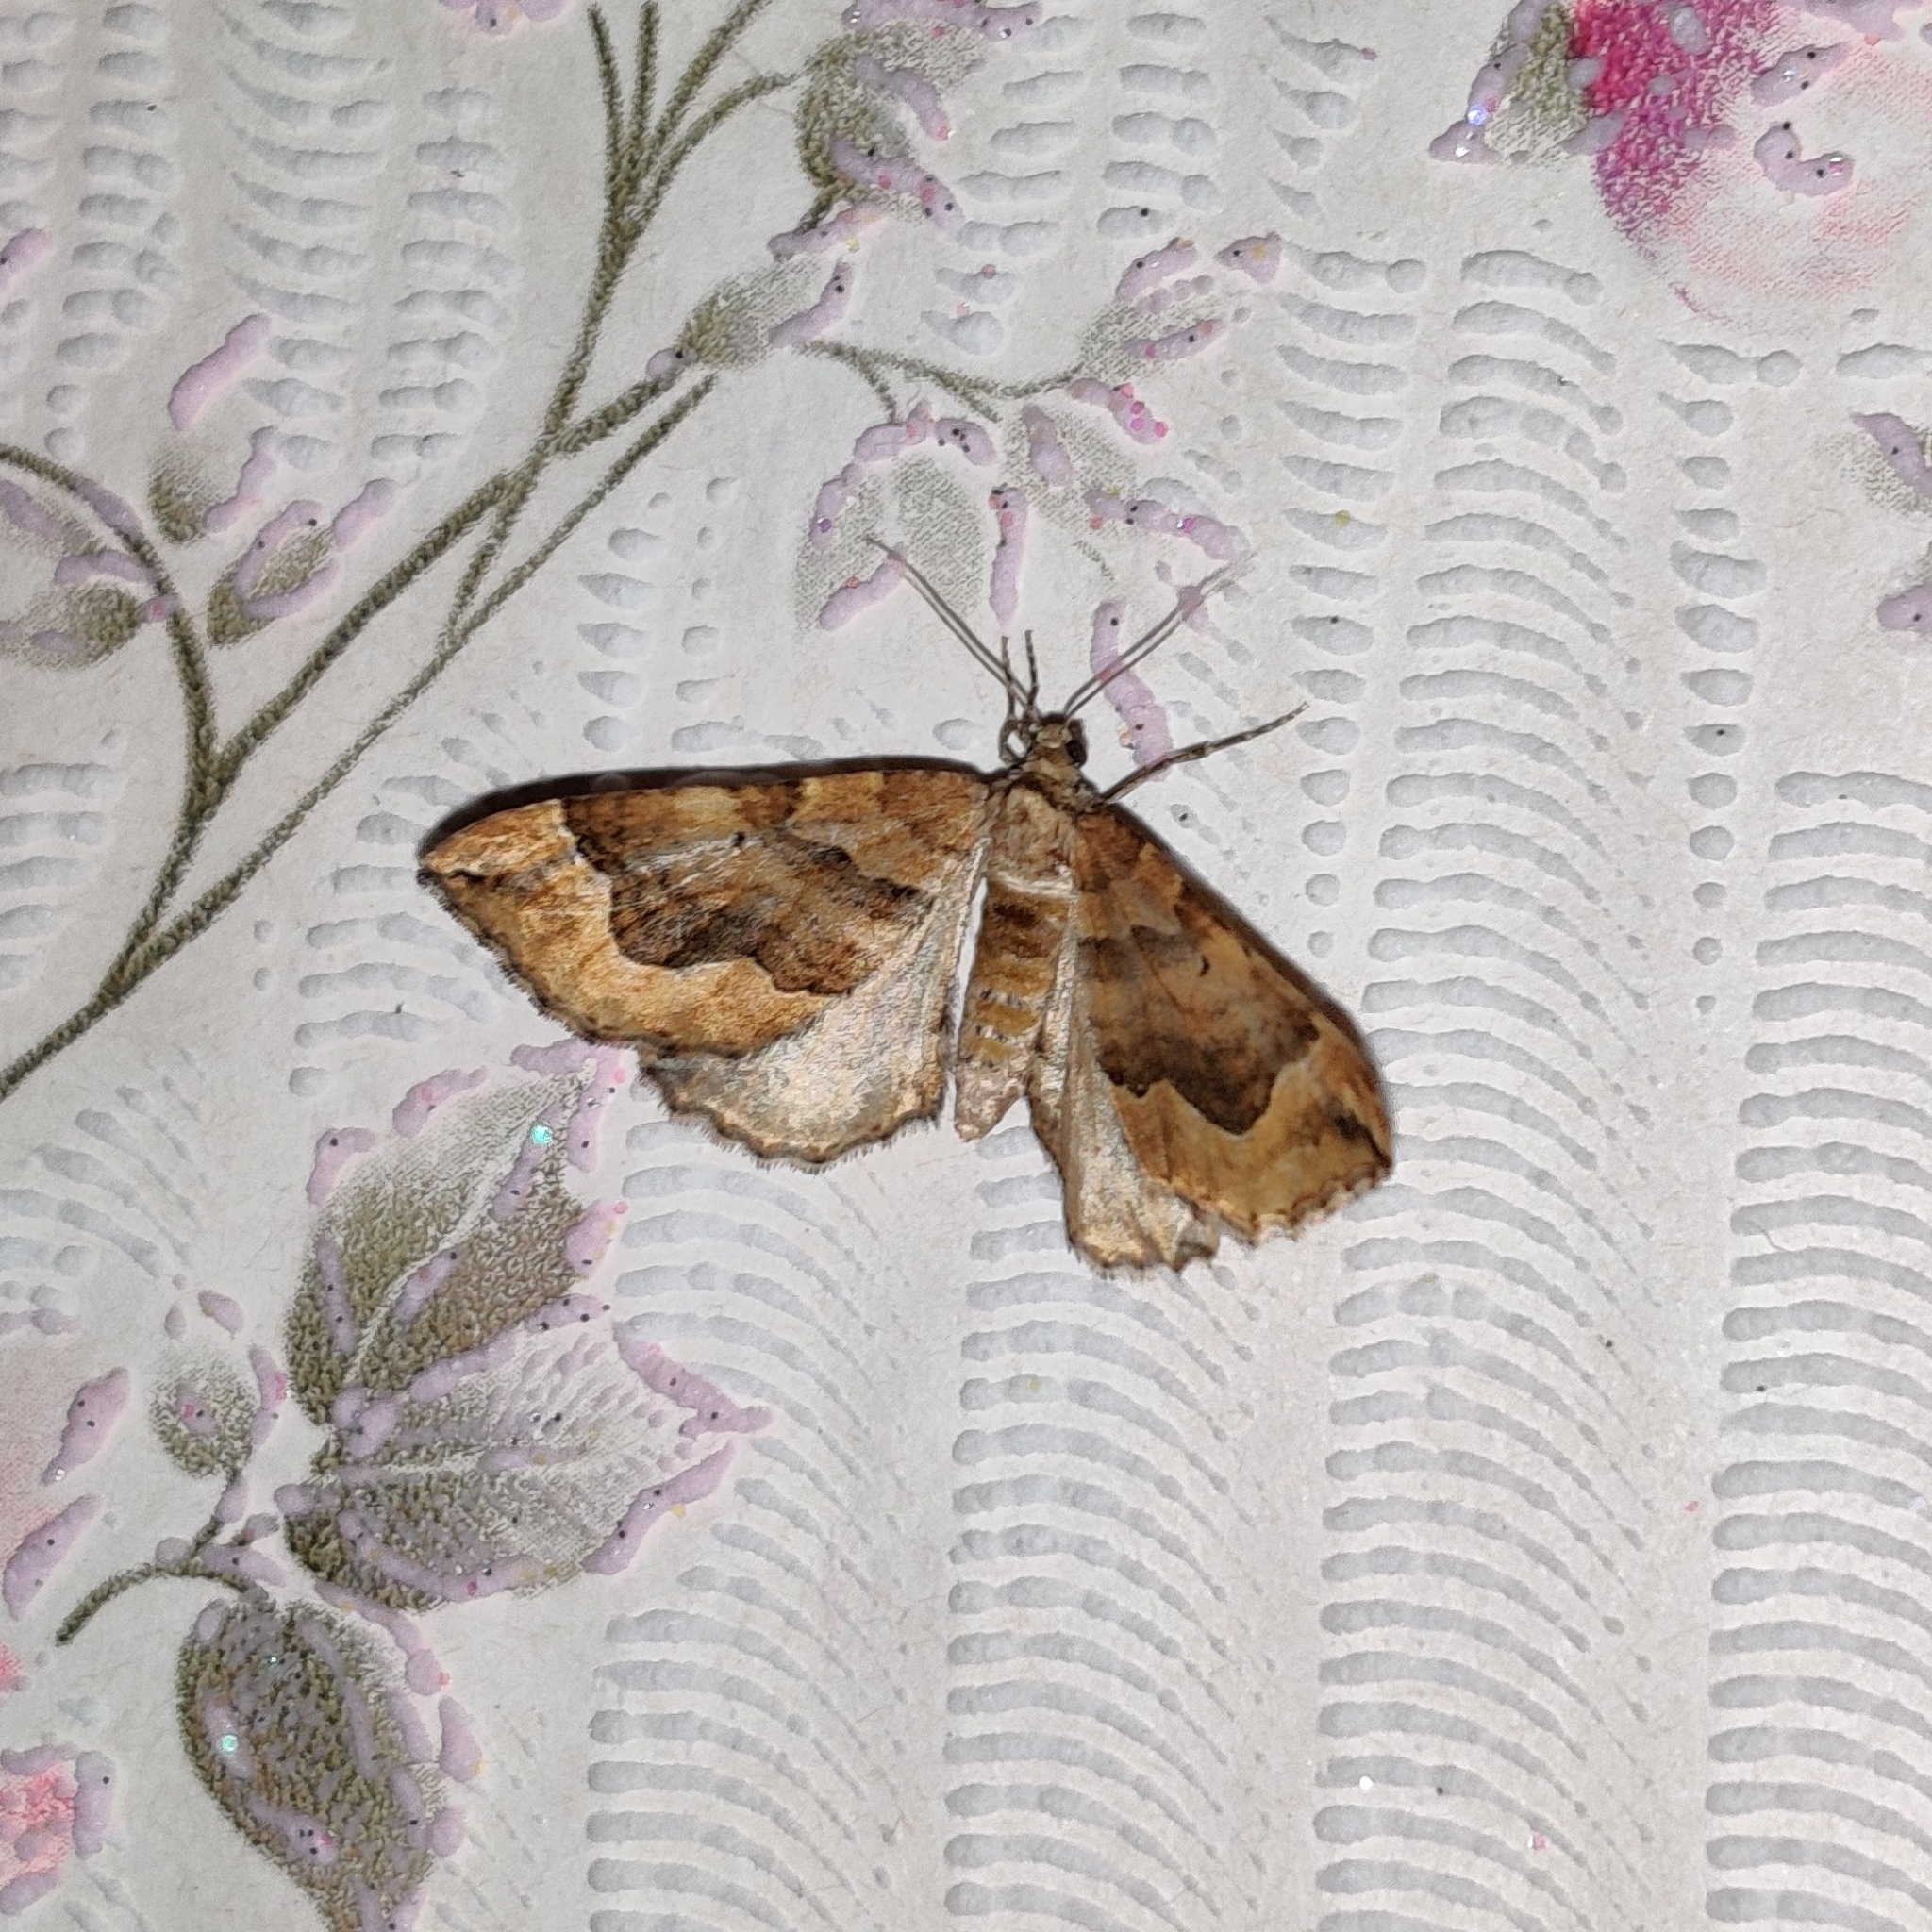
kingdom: Animalia
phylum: Arthropoda
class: Insecta
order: Lepidoptera
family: Geometridae
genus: Pelurga
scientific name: Pelurga comitata
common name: Dark spinach
